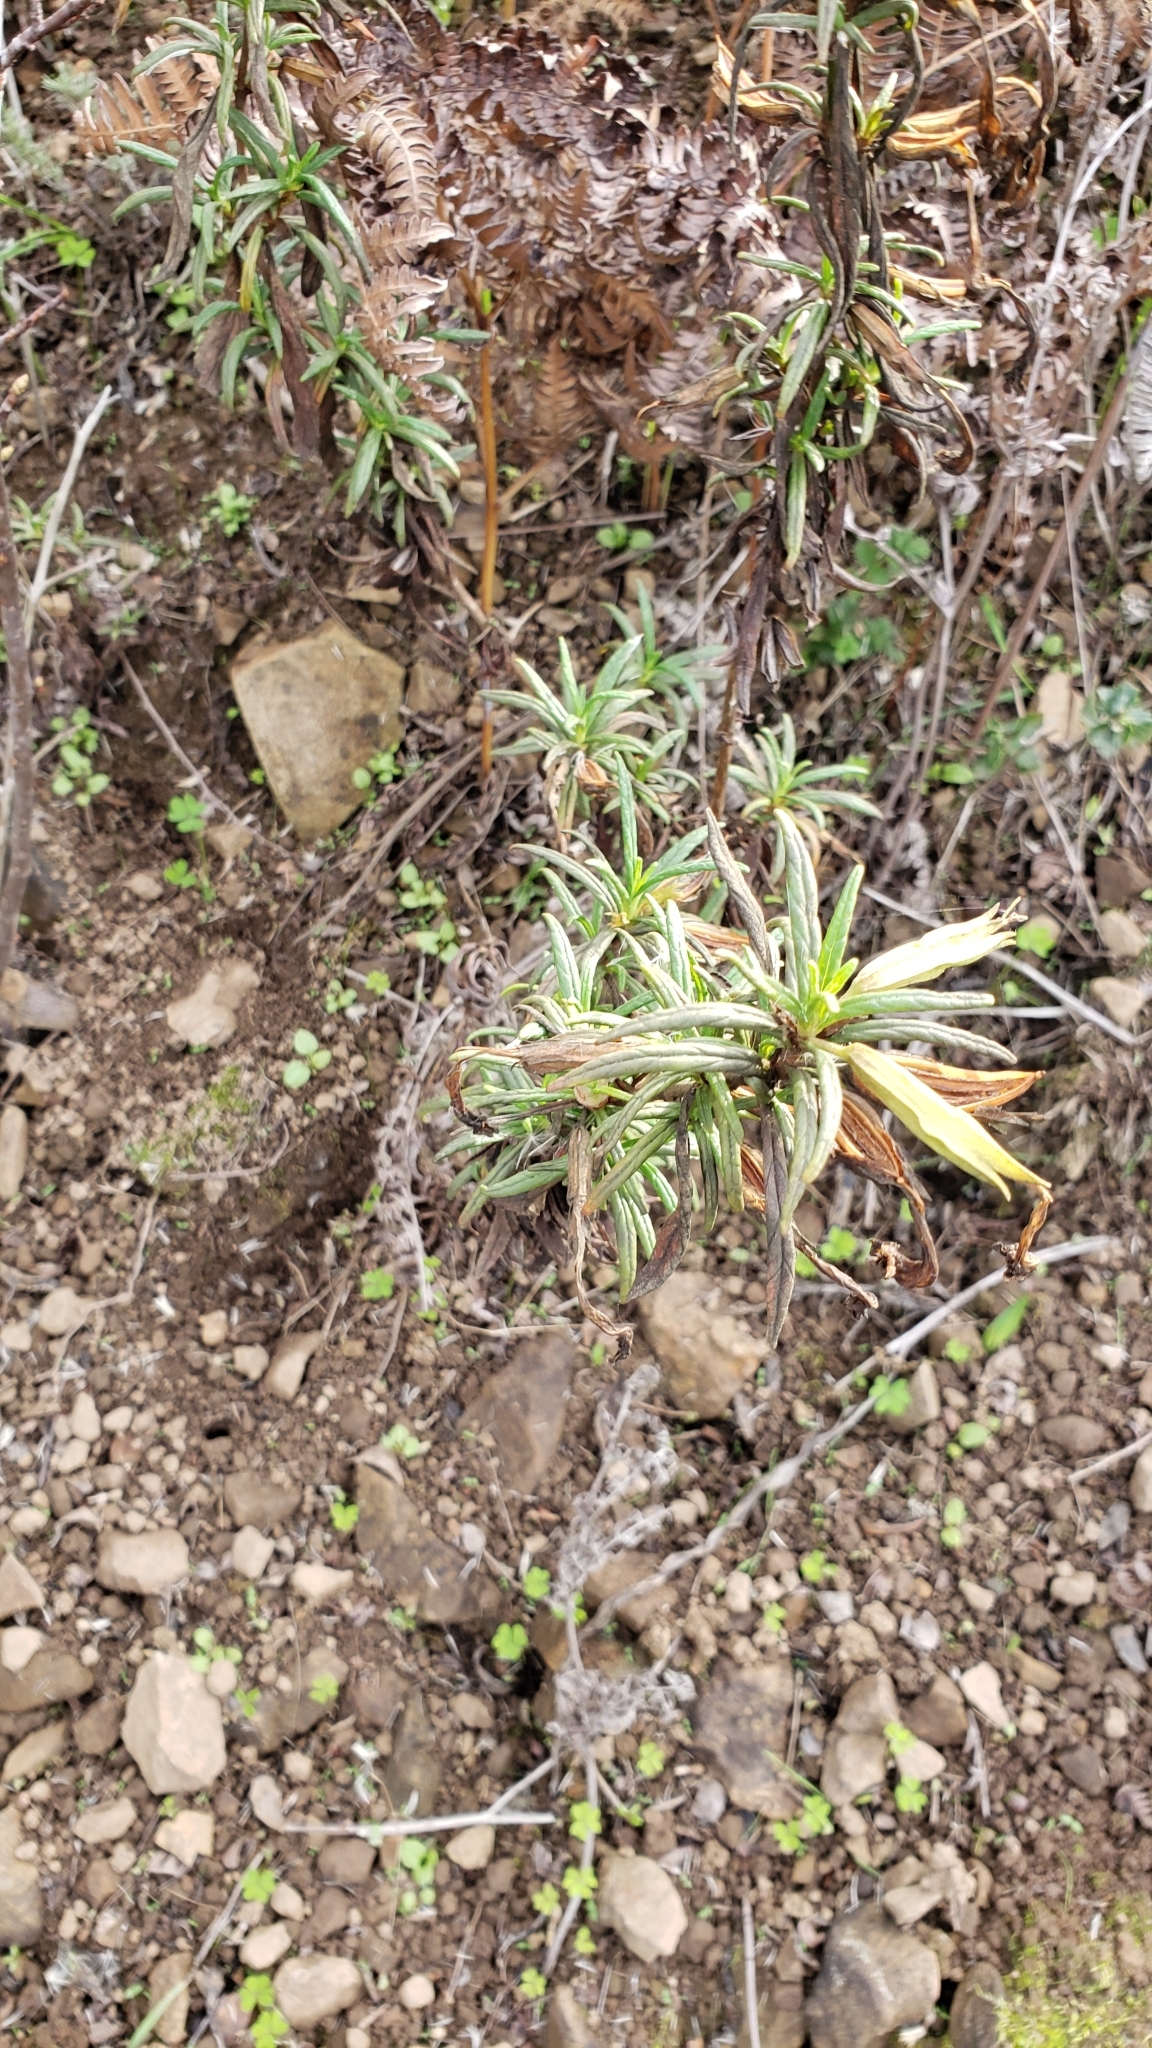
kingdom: Plantae
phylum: Tracheophyta
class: Magnoliopsida
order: Lamiales
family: Phrymaceae
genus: Diplacus
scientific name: Diplacus aurantiacus
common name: Bush monkey-flower
